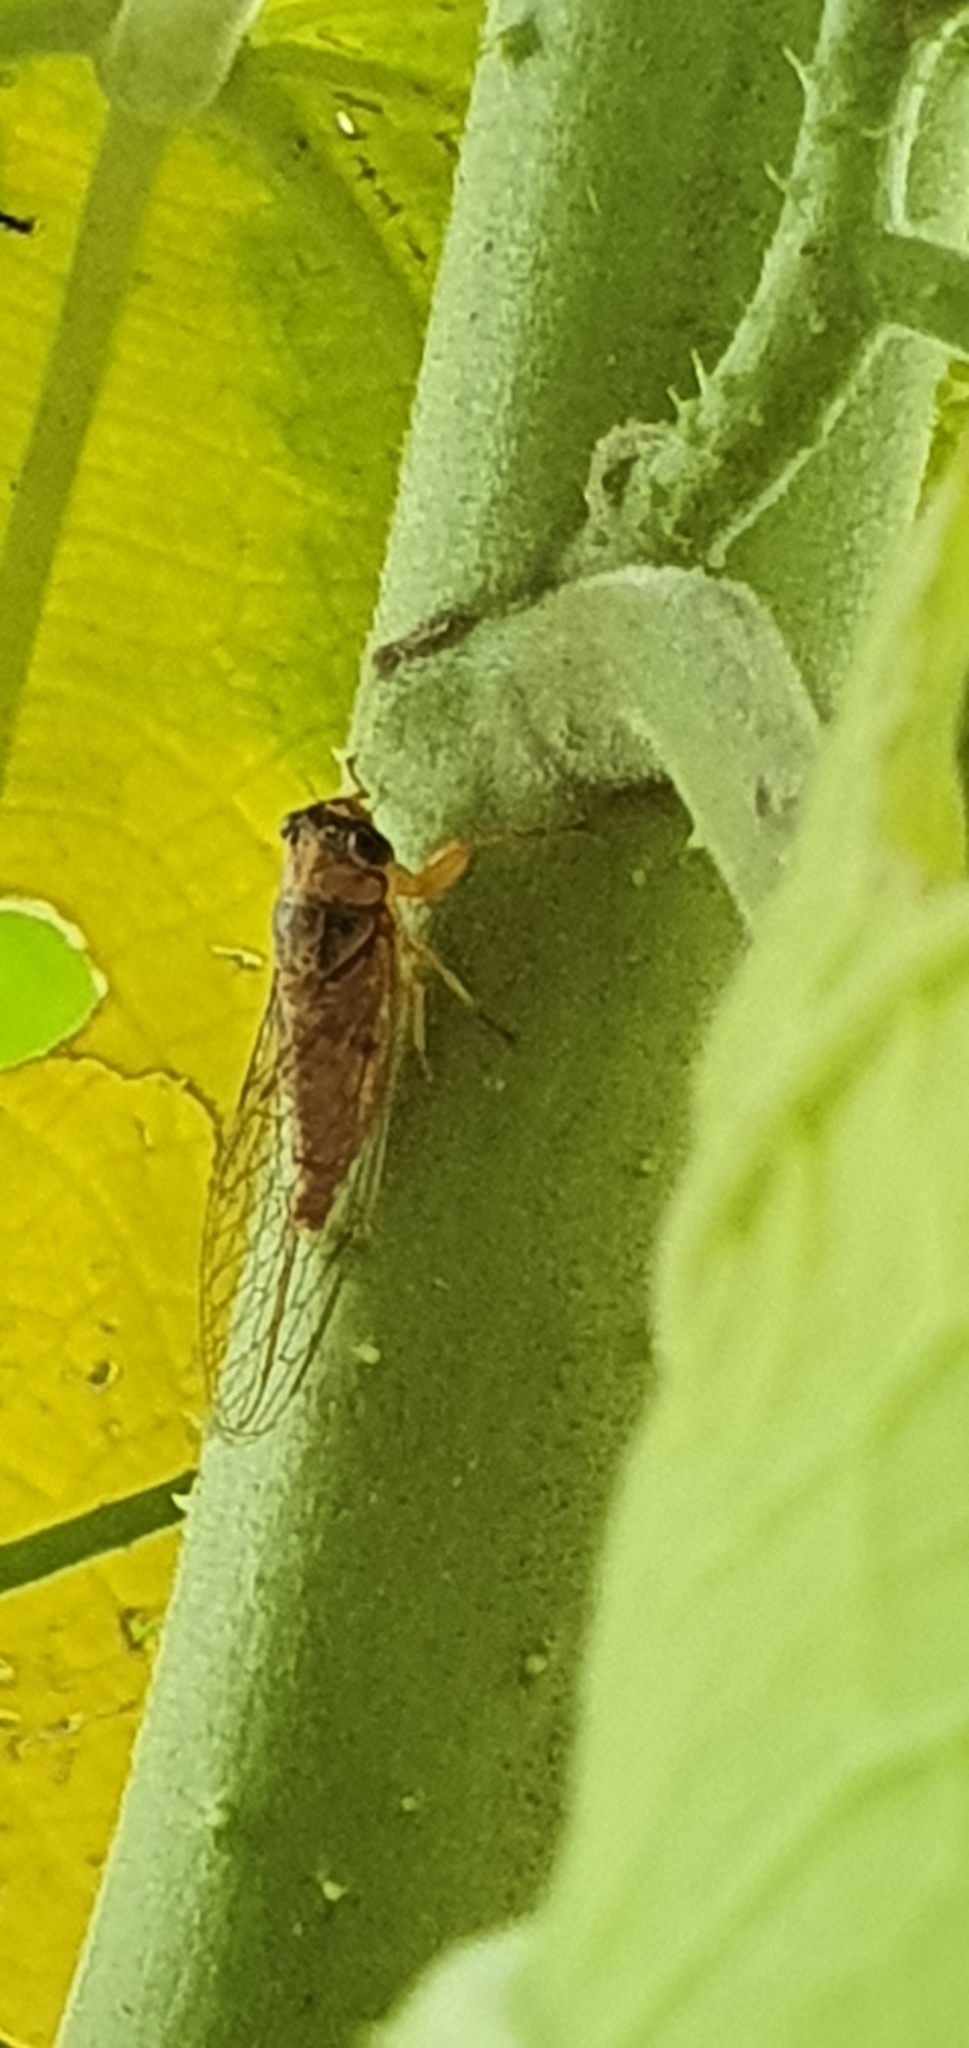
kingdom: Animalia
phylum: Arthropoda
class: Insecta
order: Hemiptera
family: Cicadidae
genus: Taurella
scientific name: Taurella forresti
